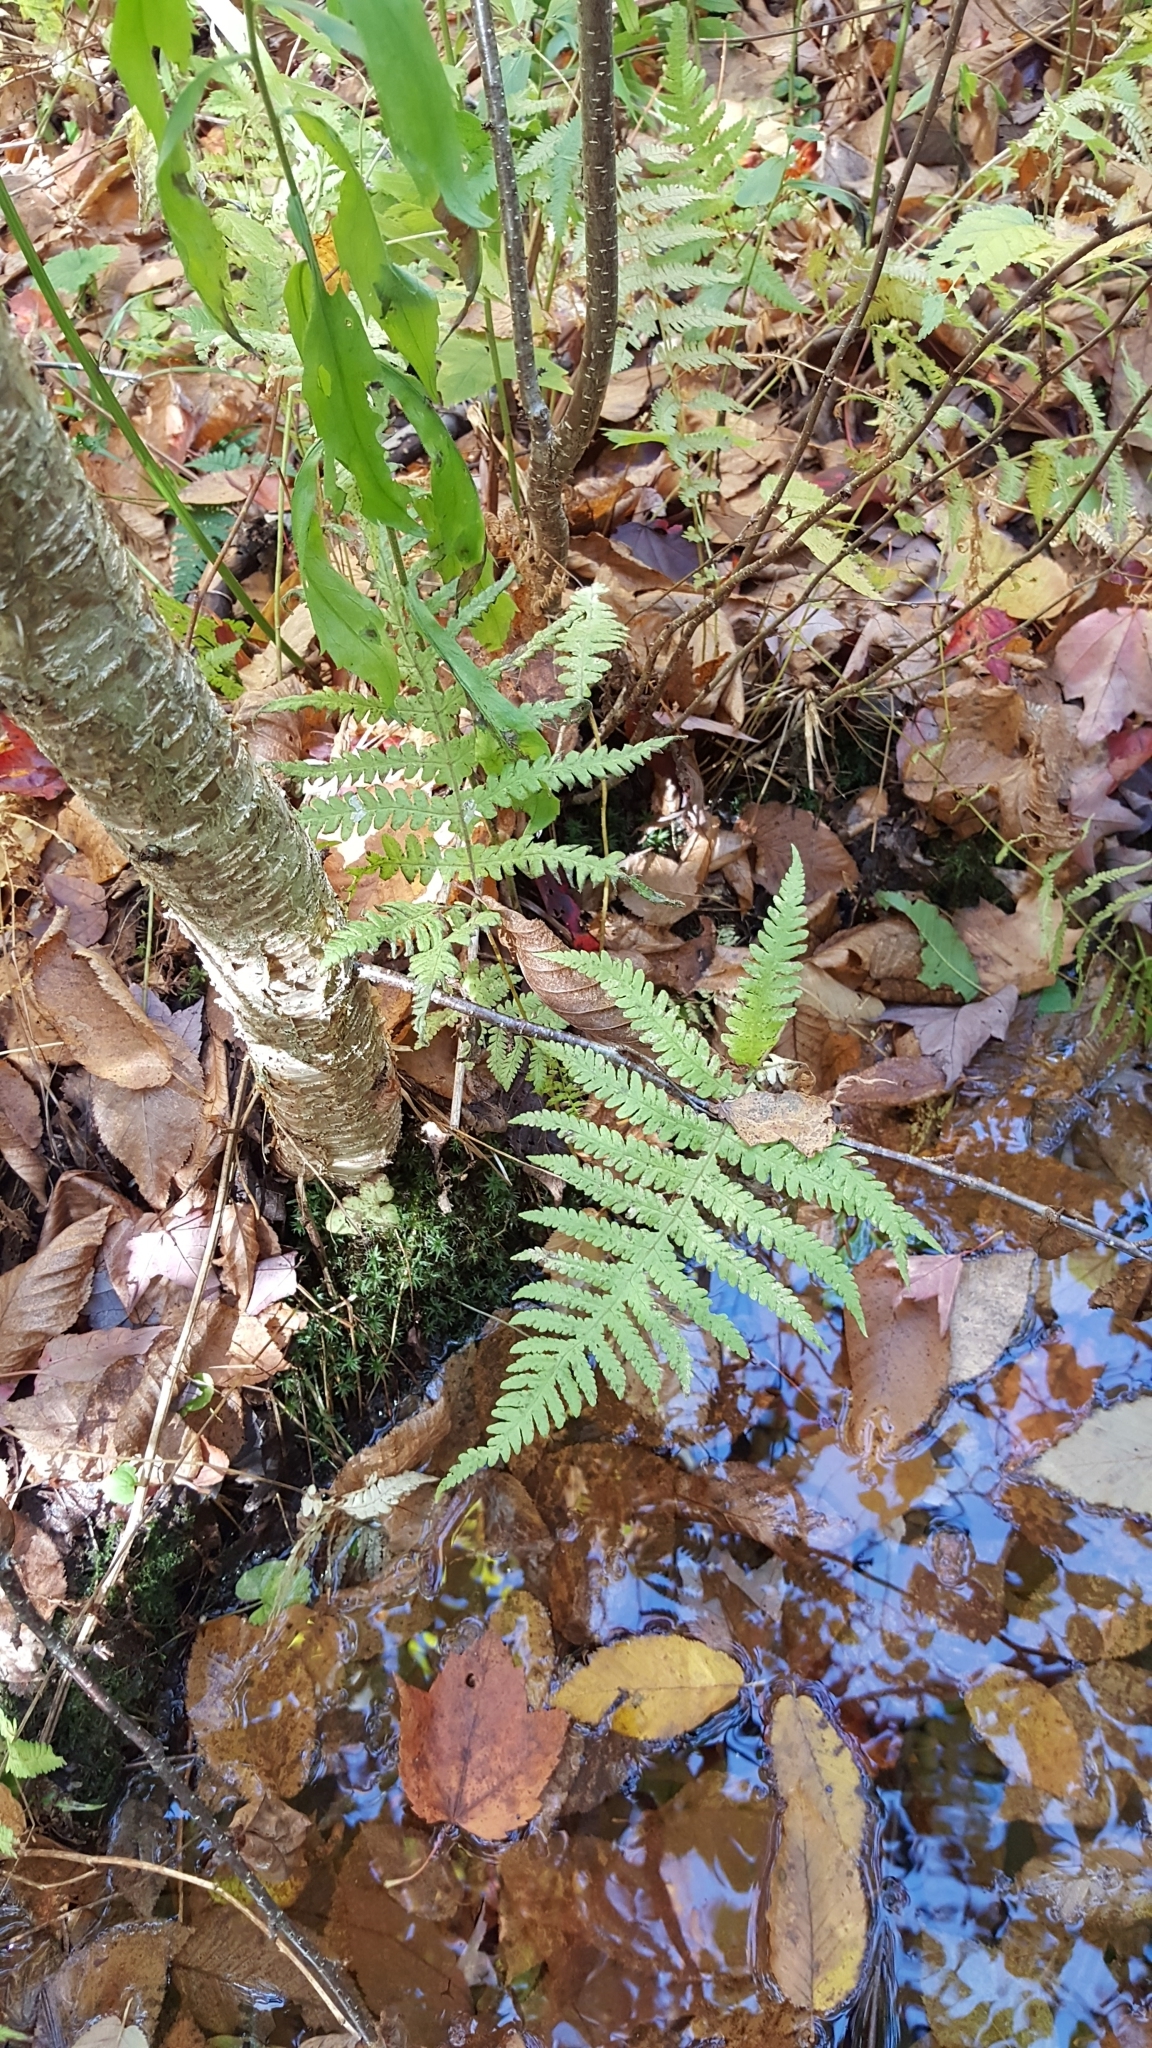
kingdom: Plantae
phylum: Tracheophyta
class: Polypodiopsida
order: Polypodiales
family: Thelypteridaceae
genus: Phegopteris
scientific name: Phegopteris connectilis
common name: Beech fern
